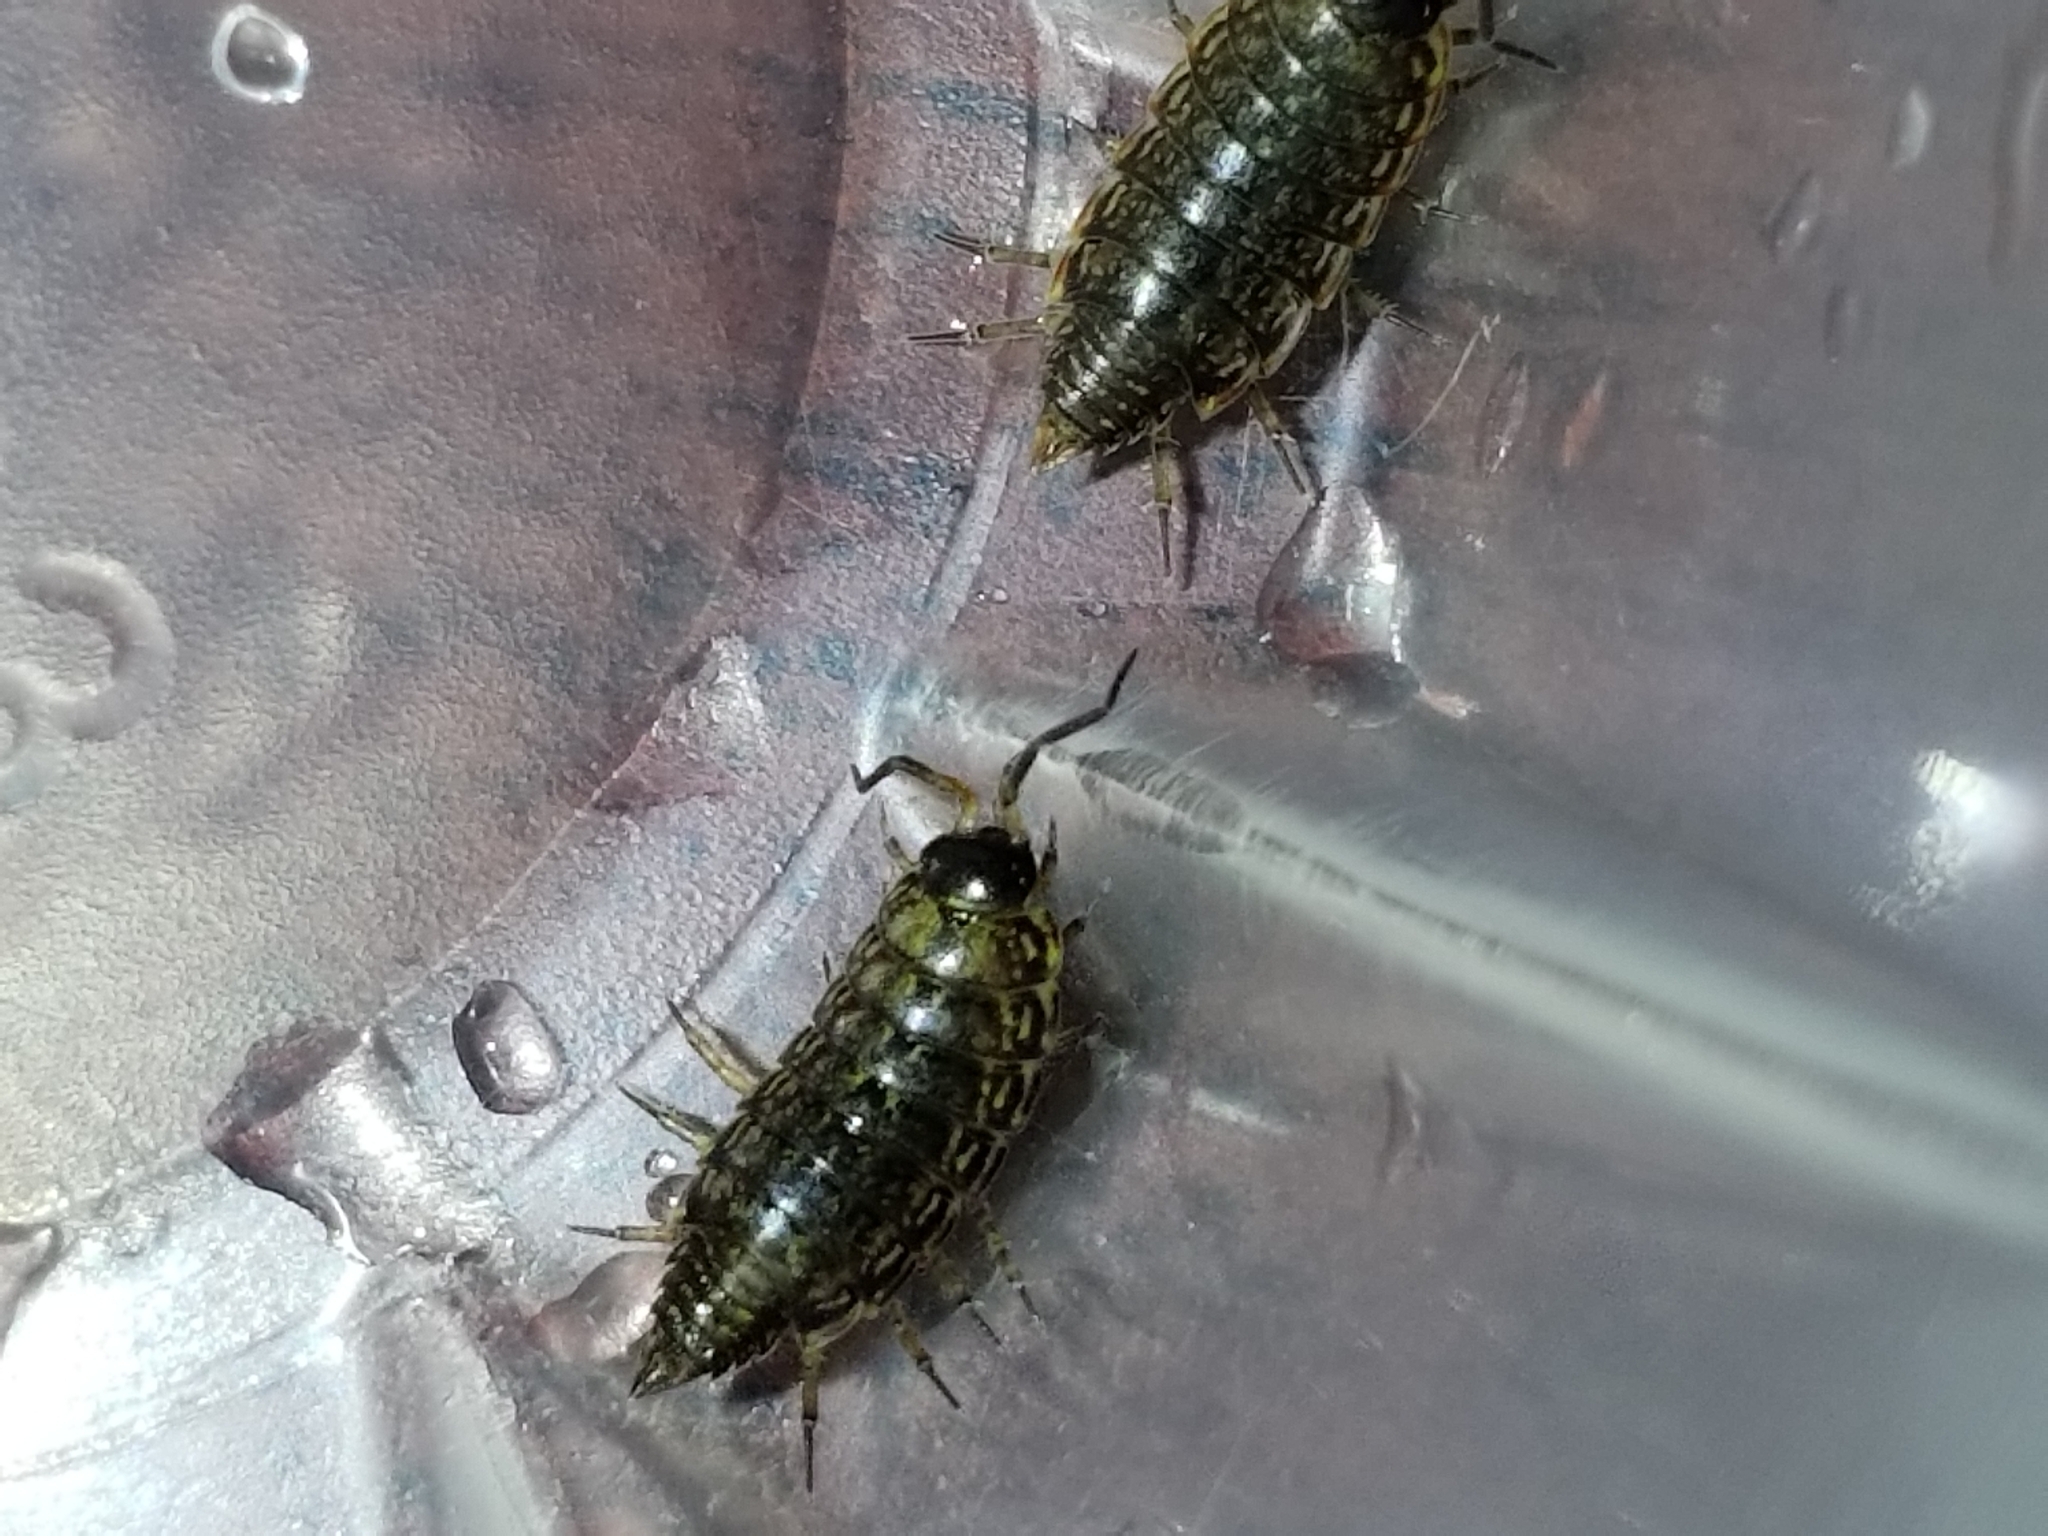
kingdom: Animalia
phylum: Arthropoda
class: Malacostraca
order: Isopoda
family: Philosciidae
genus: Philoscia
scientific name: Philoscia muscorum
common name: Common striped woodlouse
